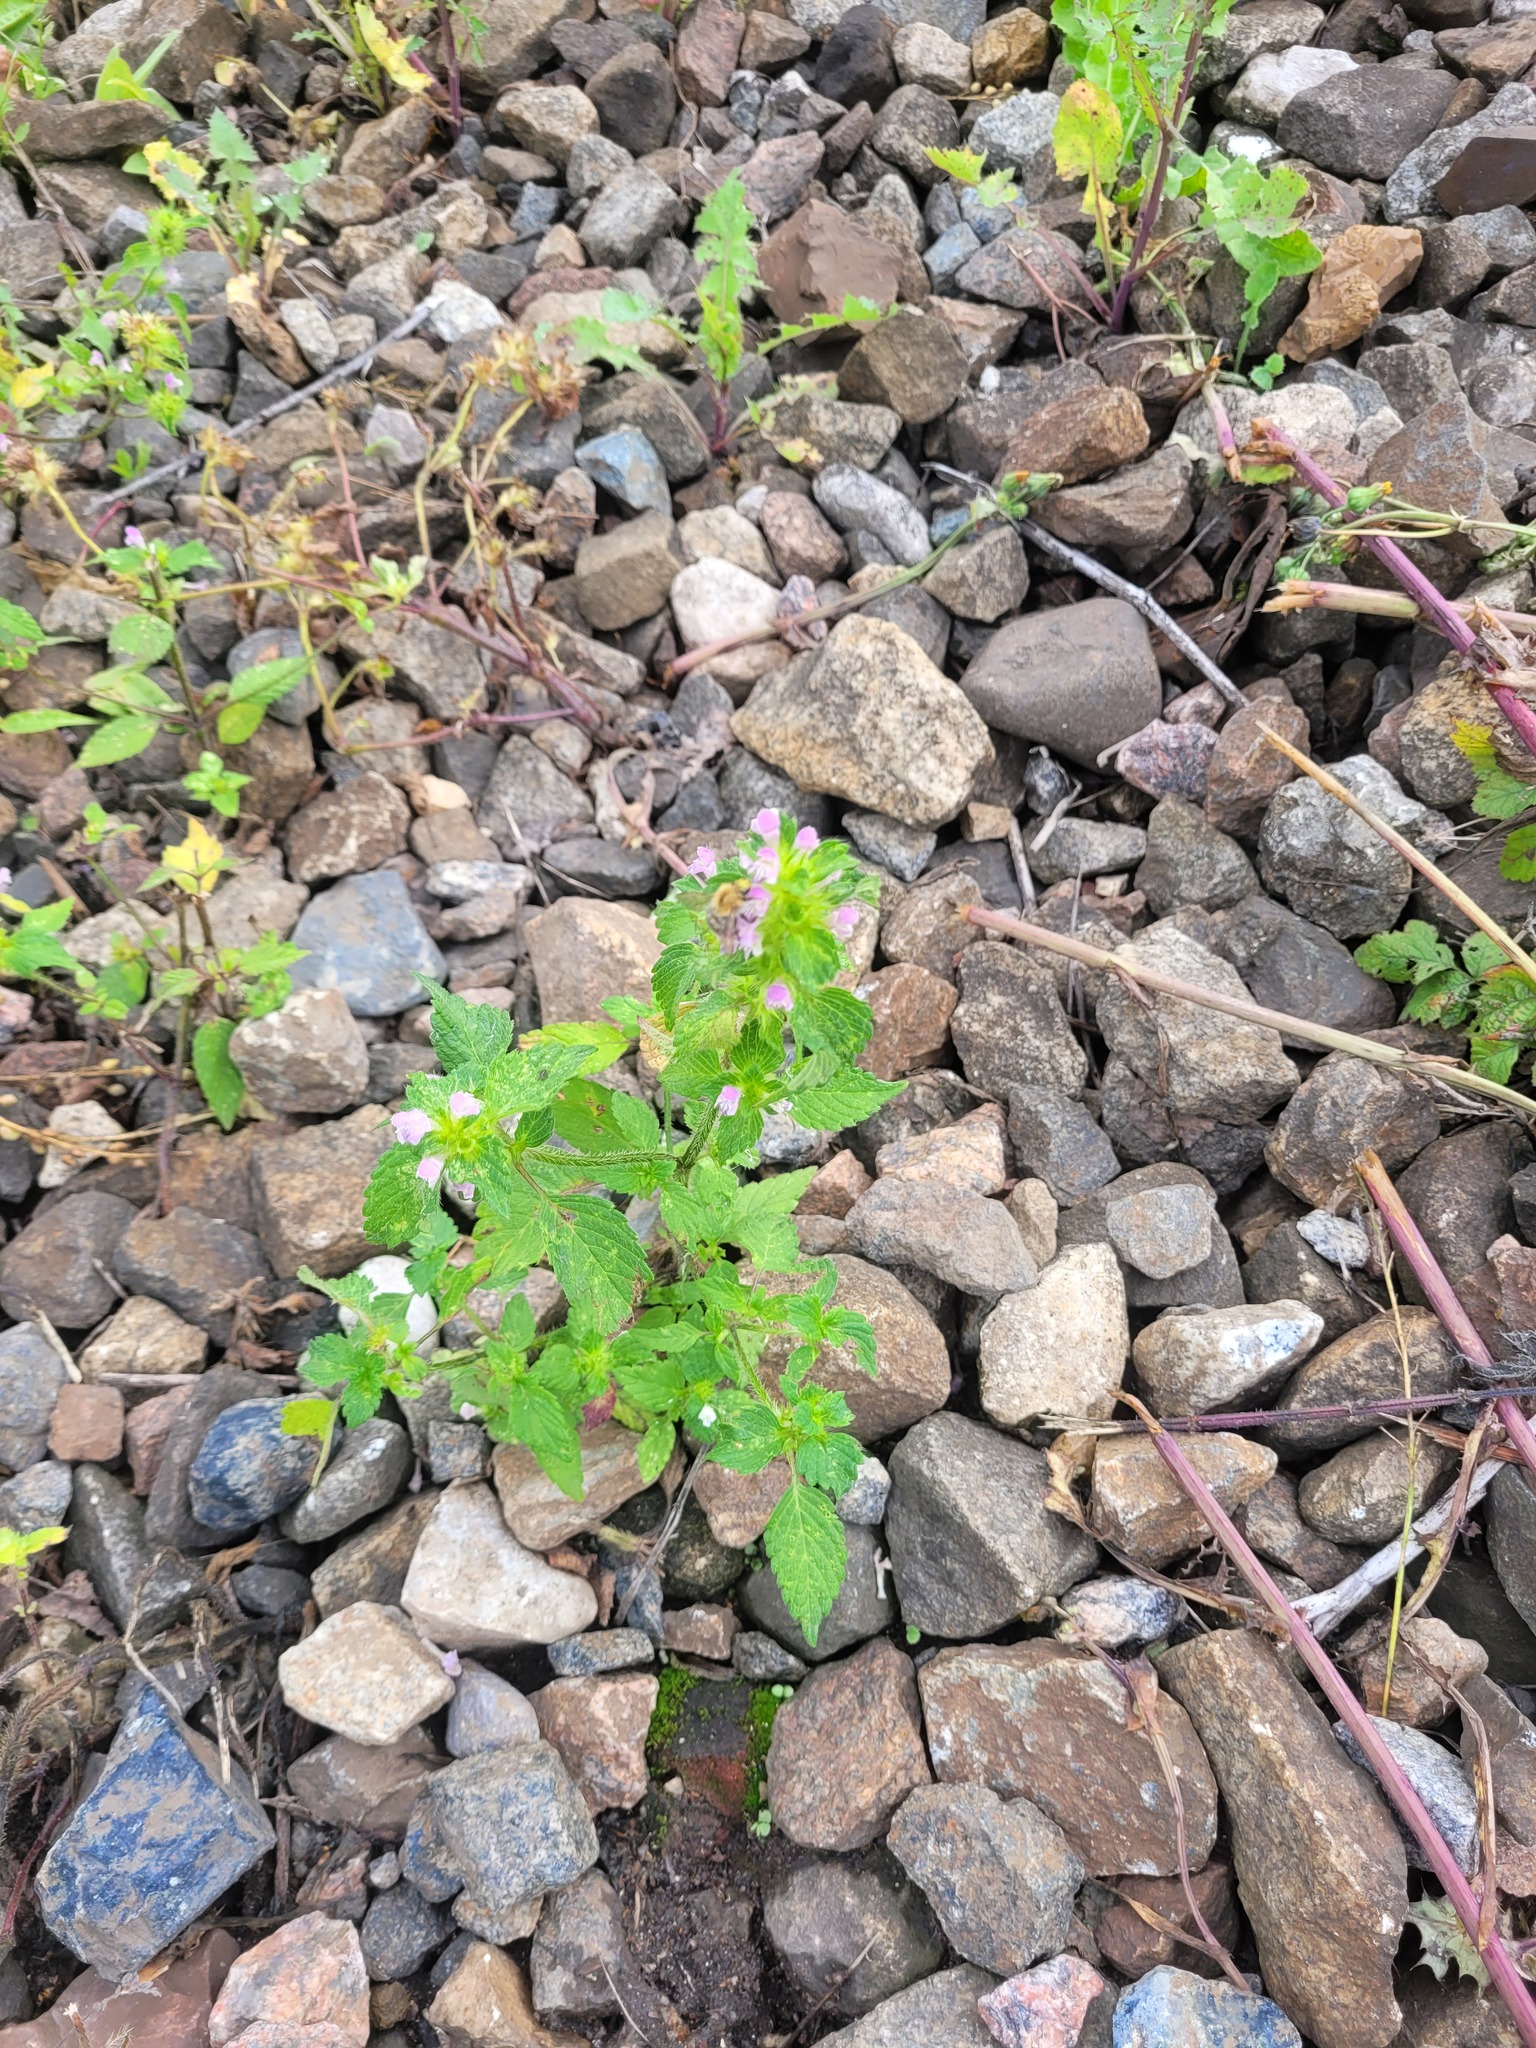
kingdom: Plantae
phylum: Tracheophyta
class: Magnoliopsida
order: Lamiales
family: Lamiaceae
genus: Galeopsis
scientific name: Galeopsis bifida
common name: Bifid hemp-nettle
